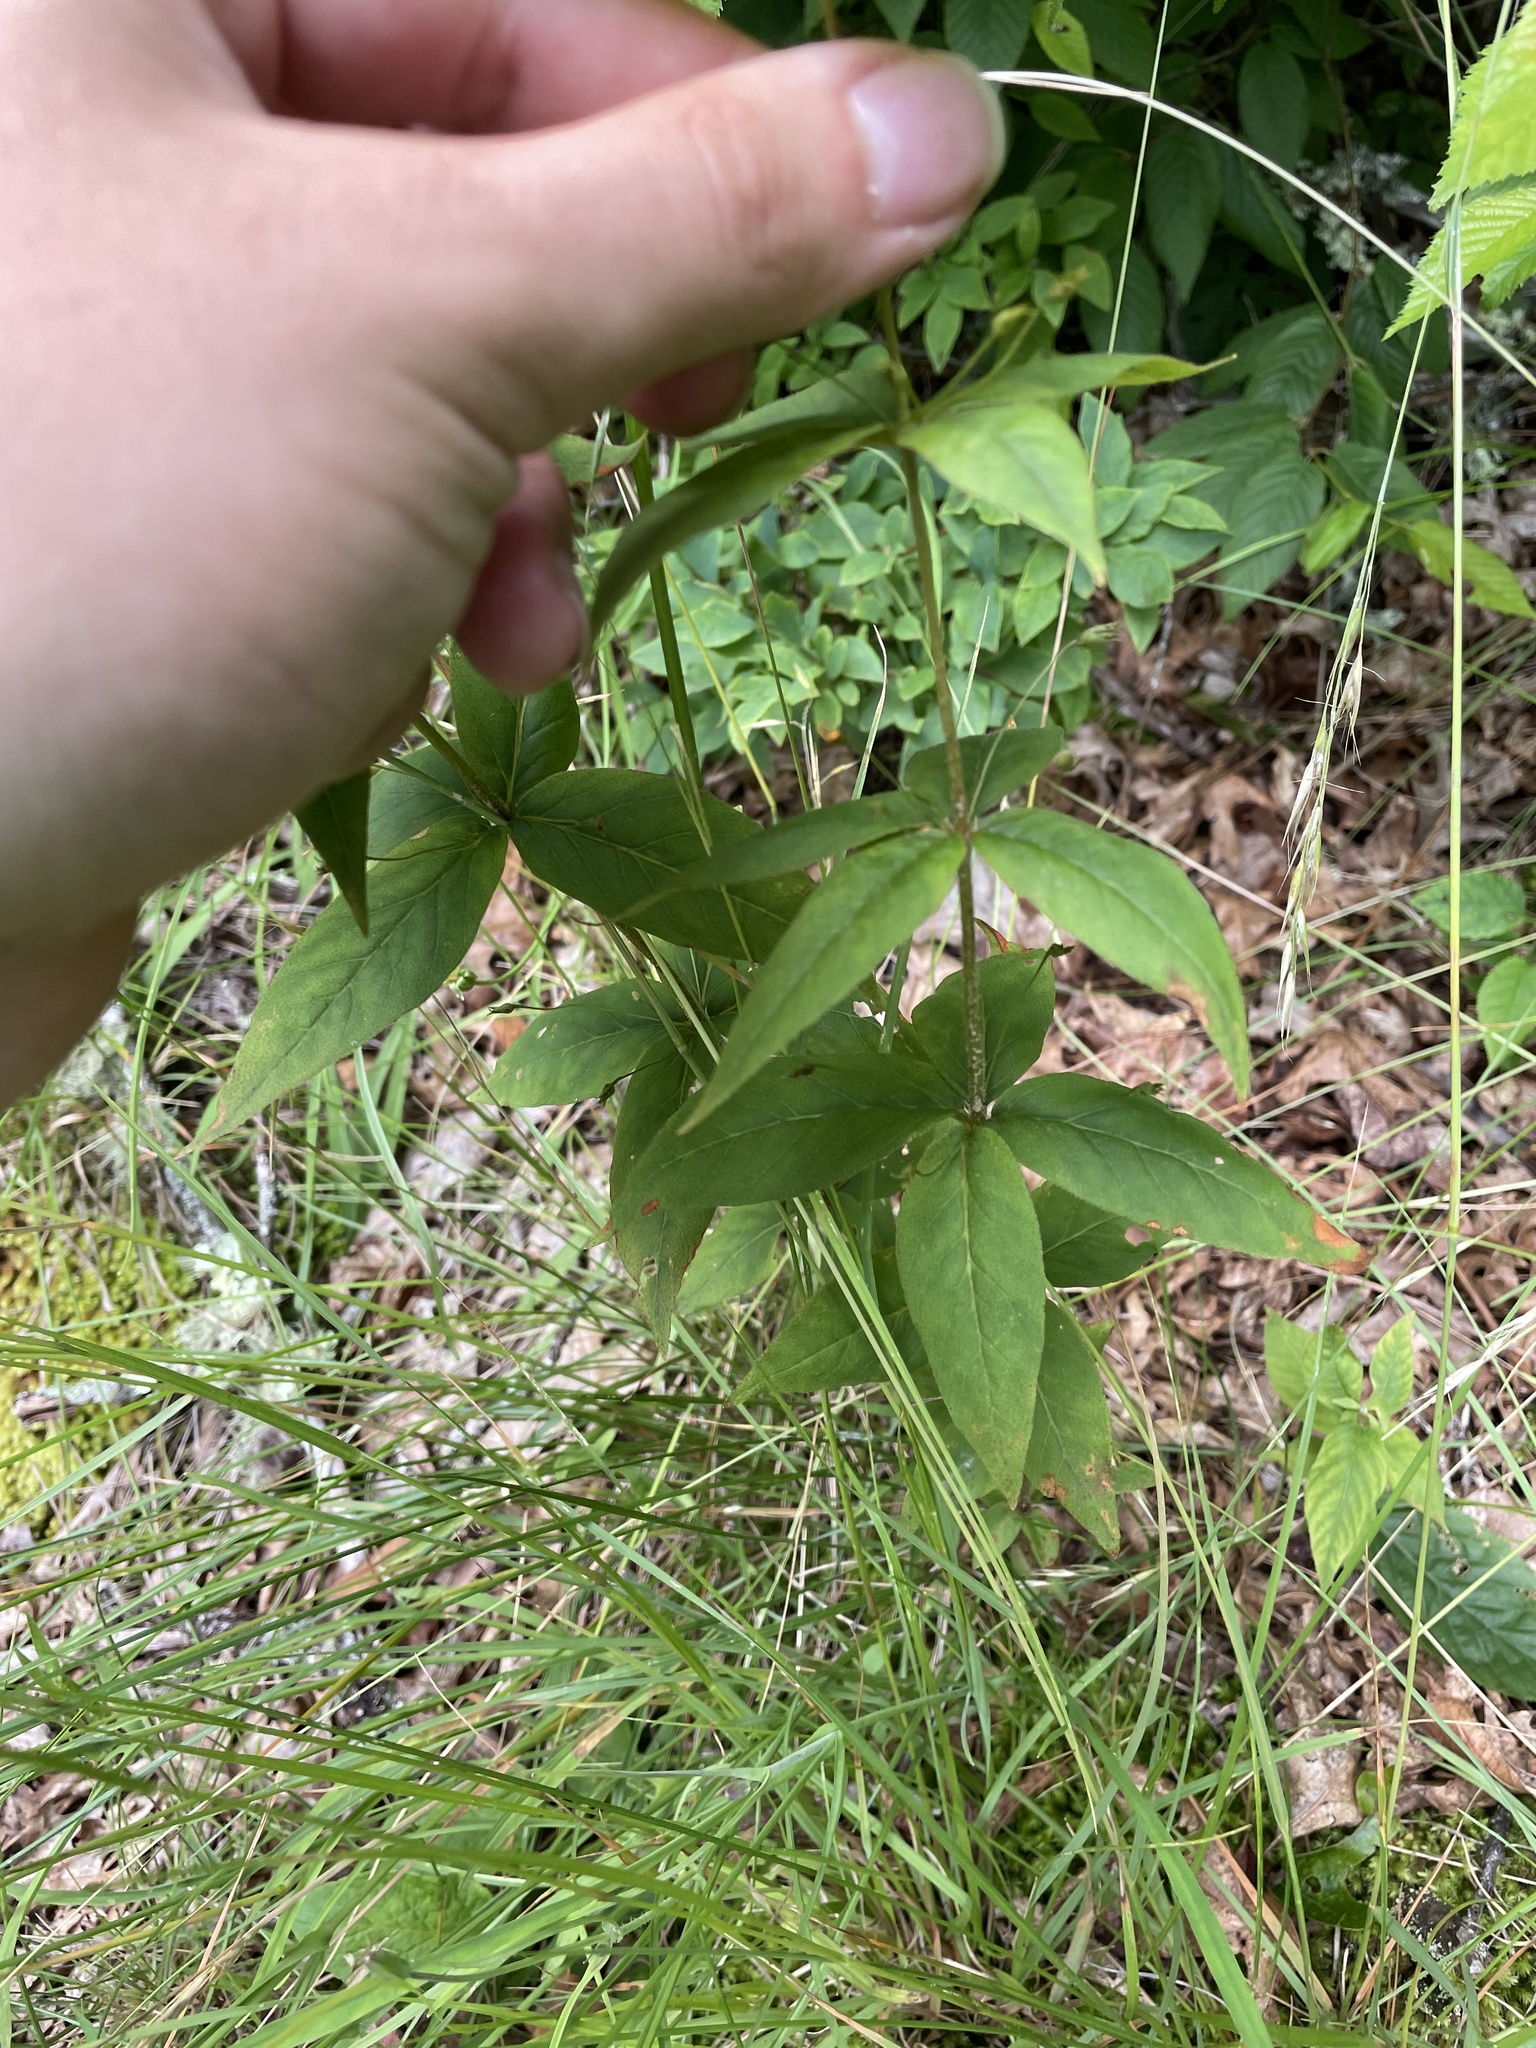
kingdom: Plantae
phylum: Tracheophyta
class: Magnoliopsida
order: Ericales
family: Primulaceae
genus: Lysimachia
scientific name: Lysimachia quadrifolia
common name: Whorled loosestrife
